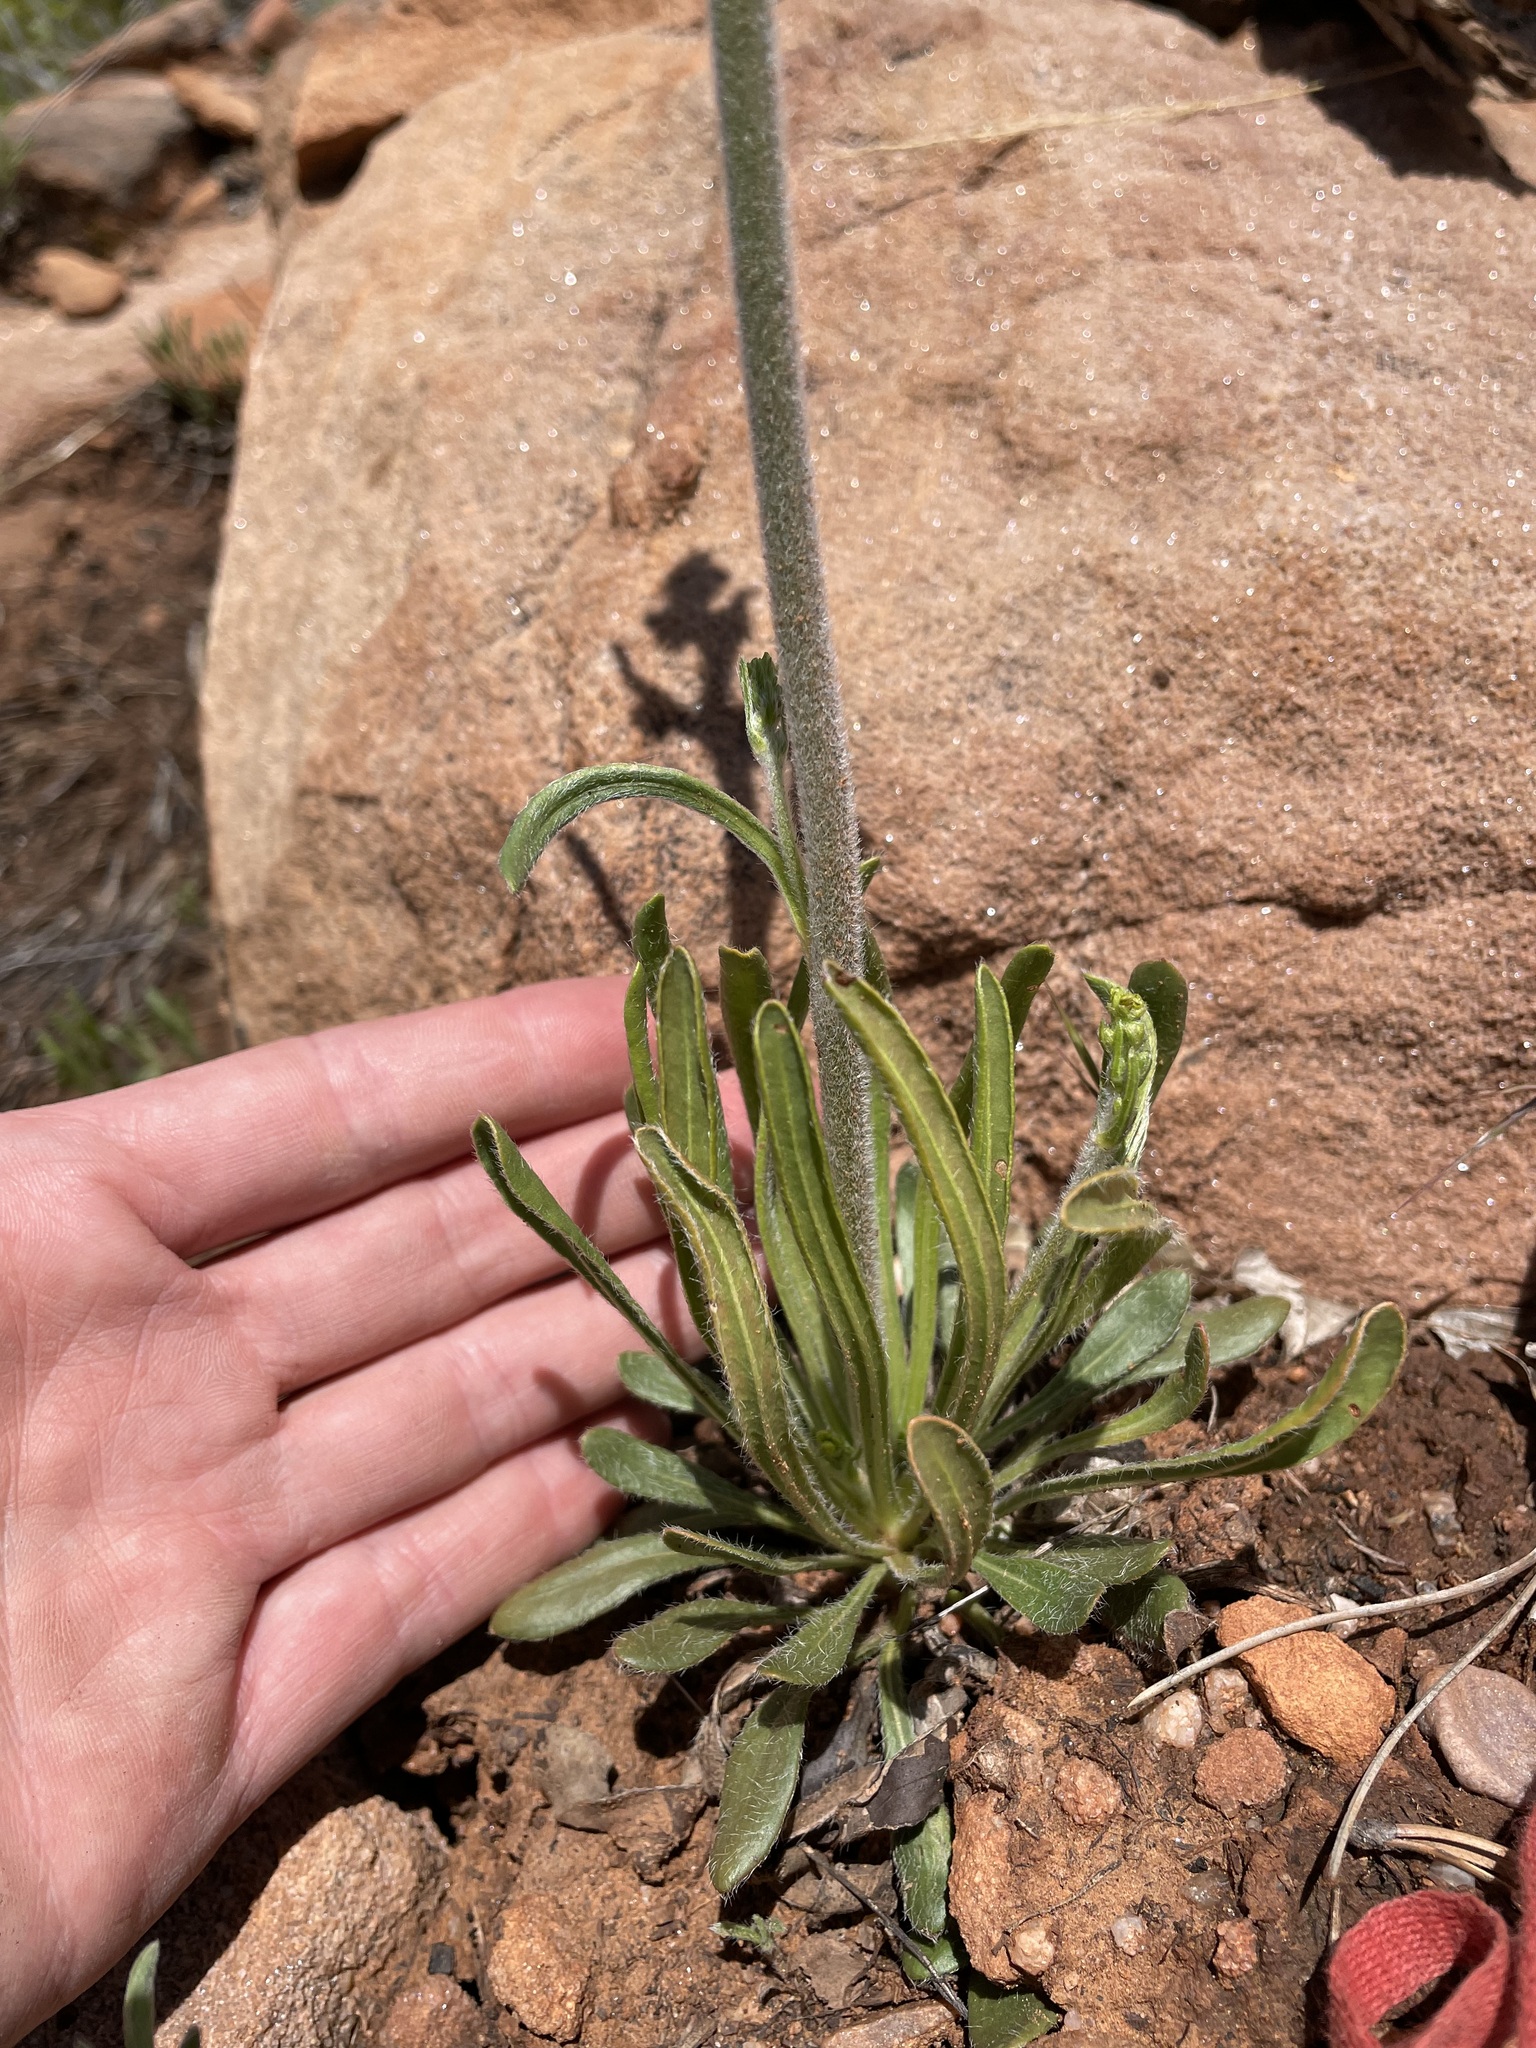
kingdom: Plantae
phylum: Tracheophyta
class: Magnoliopsida
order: Caryophyllales
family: Polygonaceae
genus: Eriogonum
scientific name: Eriogonum alatum
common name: Winged eriogonum
